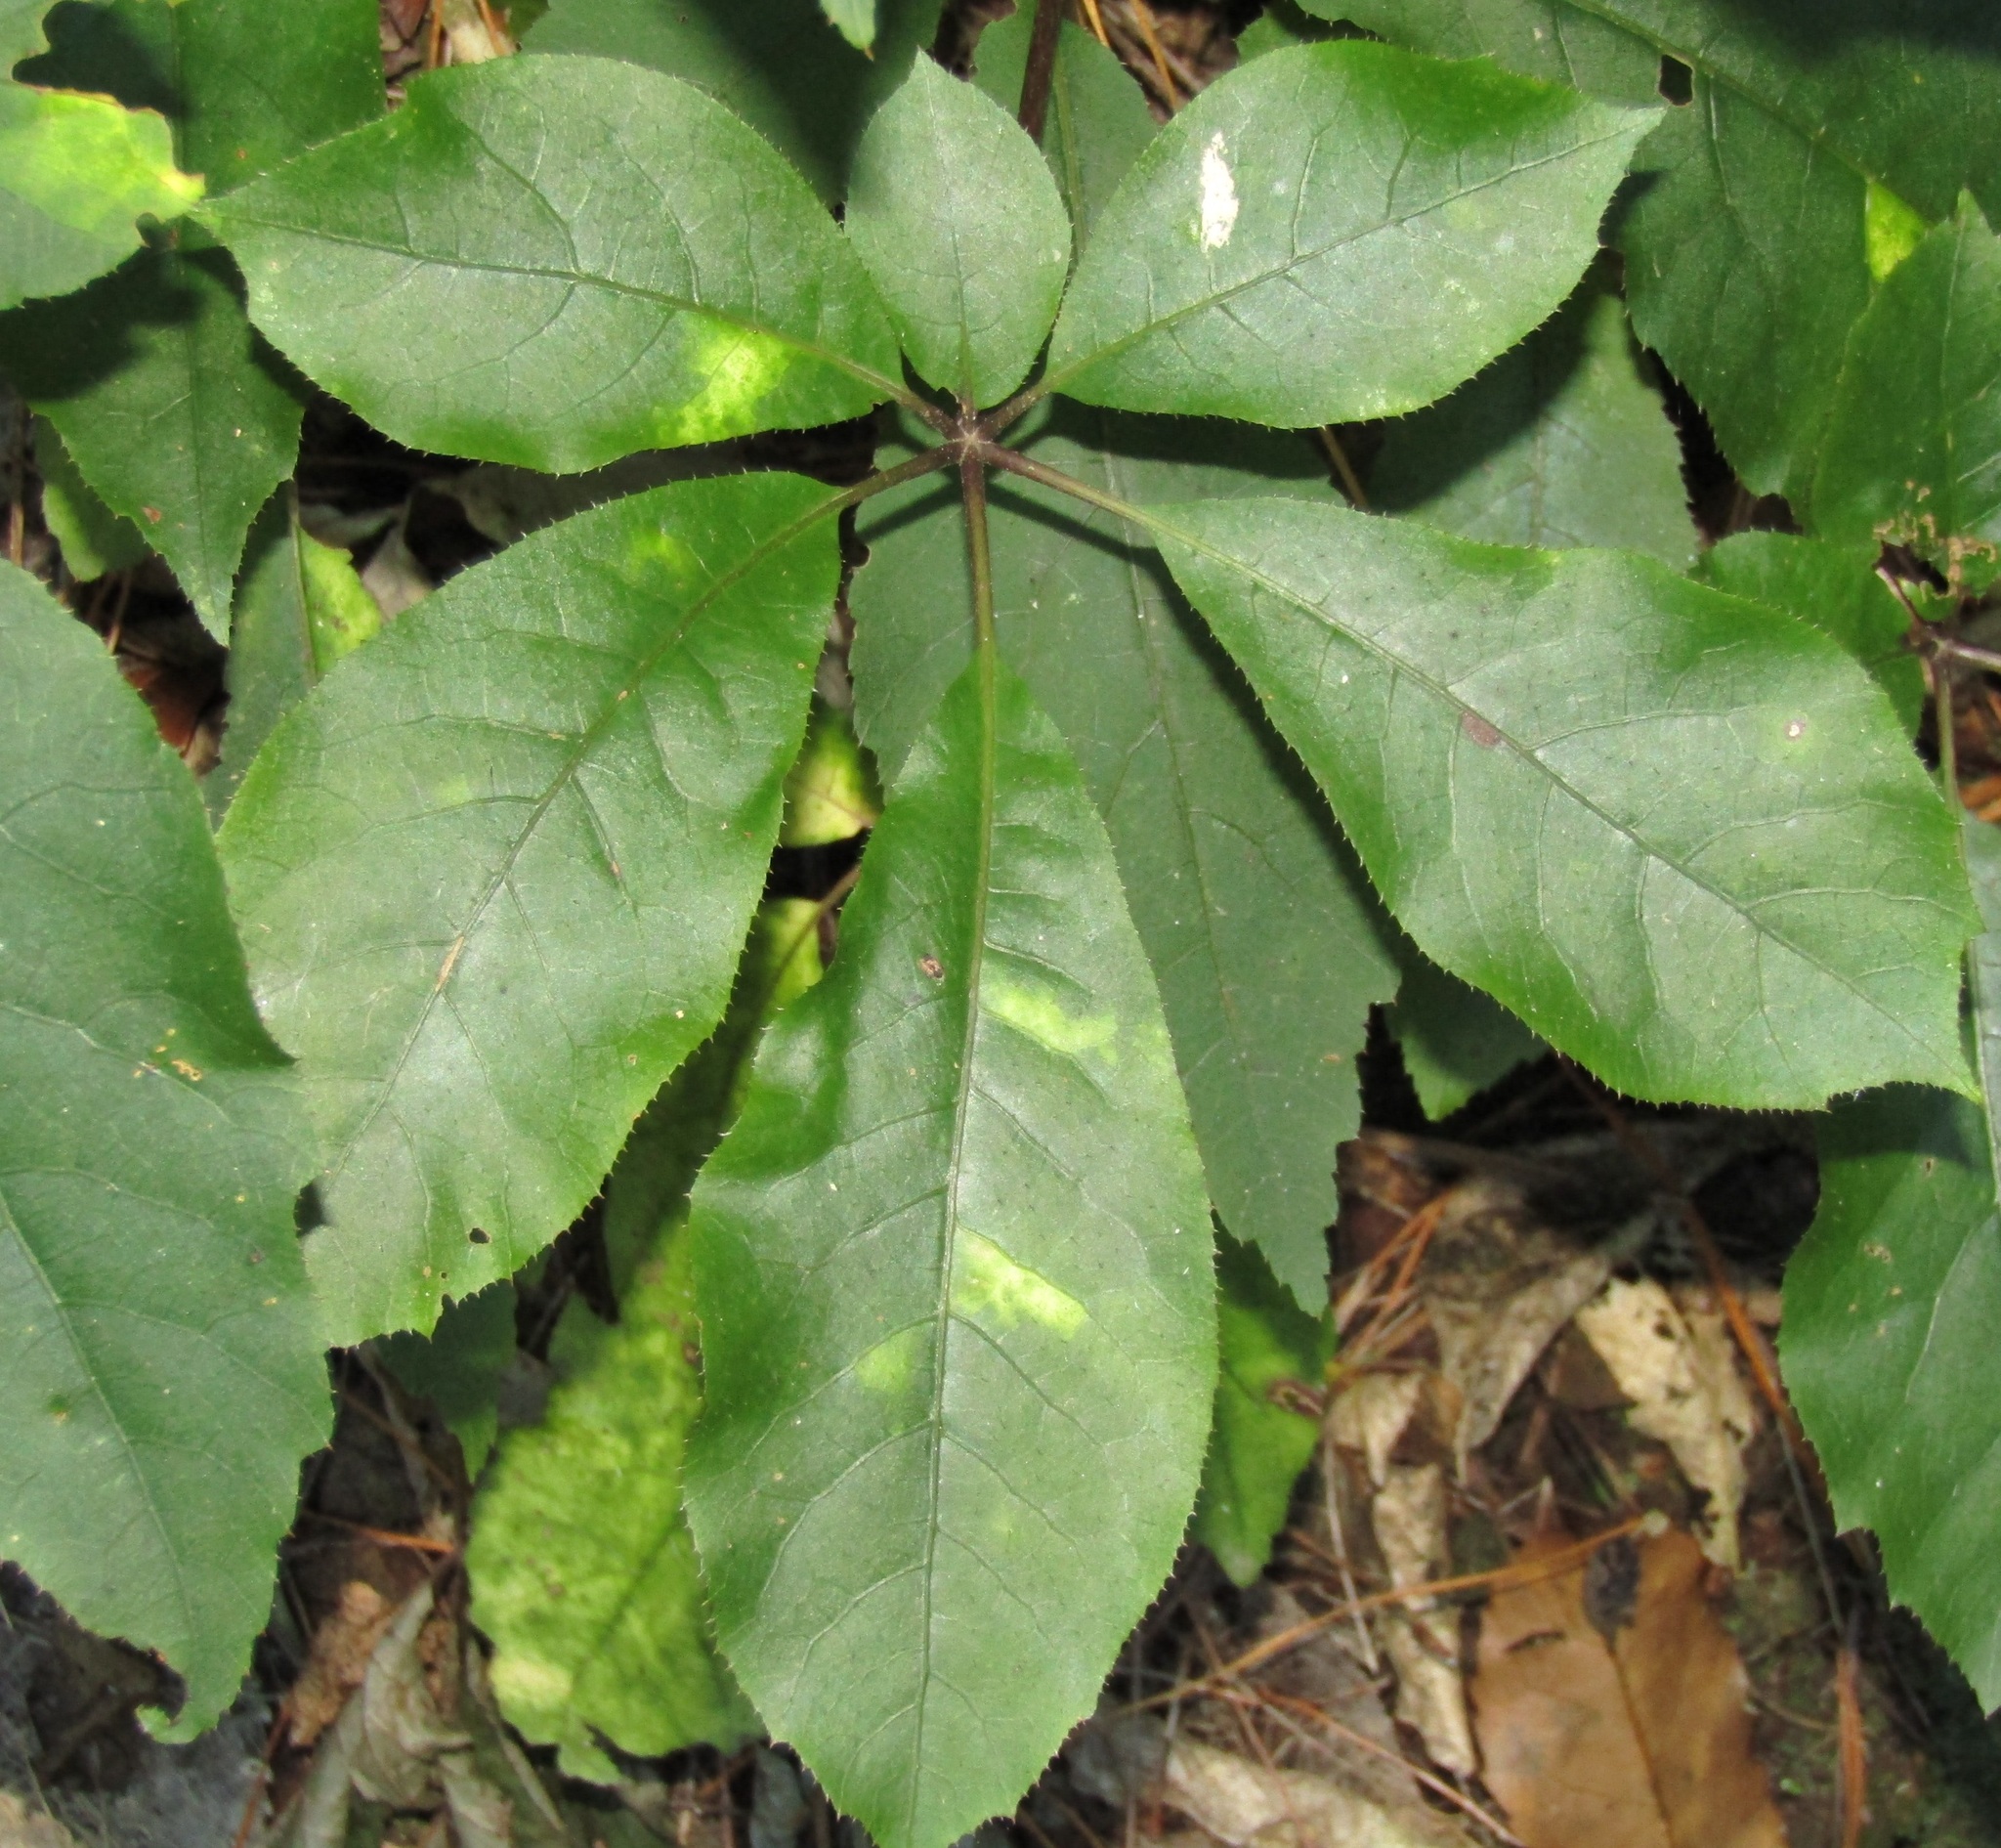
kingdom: Plantae
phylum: Tracheophyta
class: Magnoliopsida
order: Apiales
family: Araliaceae
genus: Schefflera
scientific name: Schefflera digitata
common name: Pate
